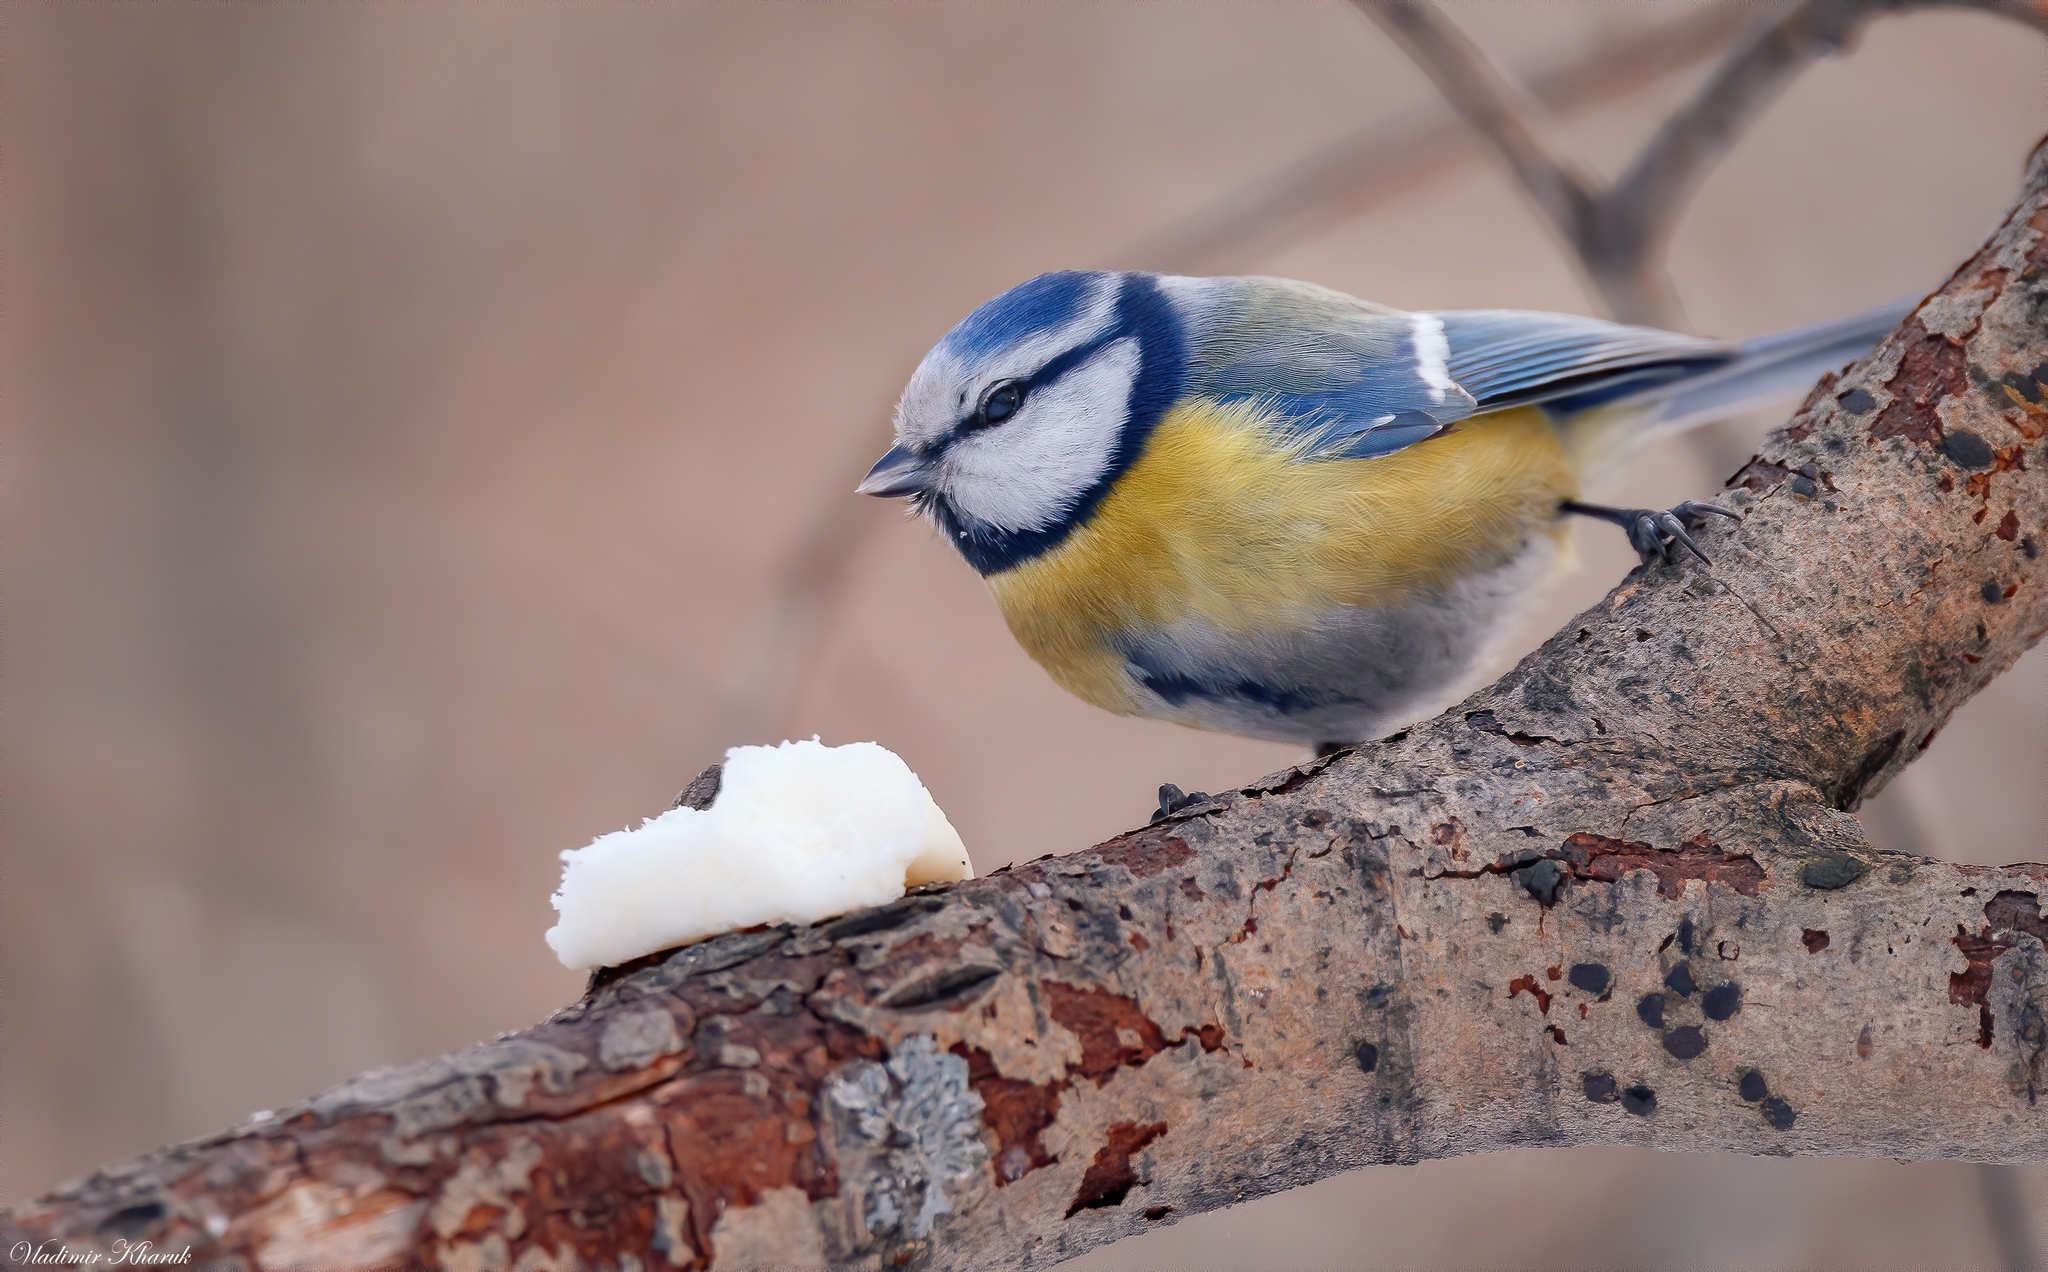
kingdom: Animalia
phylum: Chordata
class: Aves
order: Passeriformes
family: Paridae
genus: Cyanistes
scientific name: Cyanistes caeruleus
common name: Eurasian blue tit
